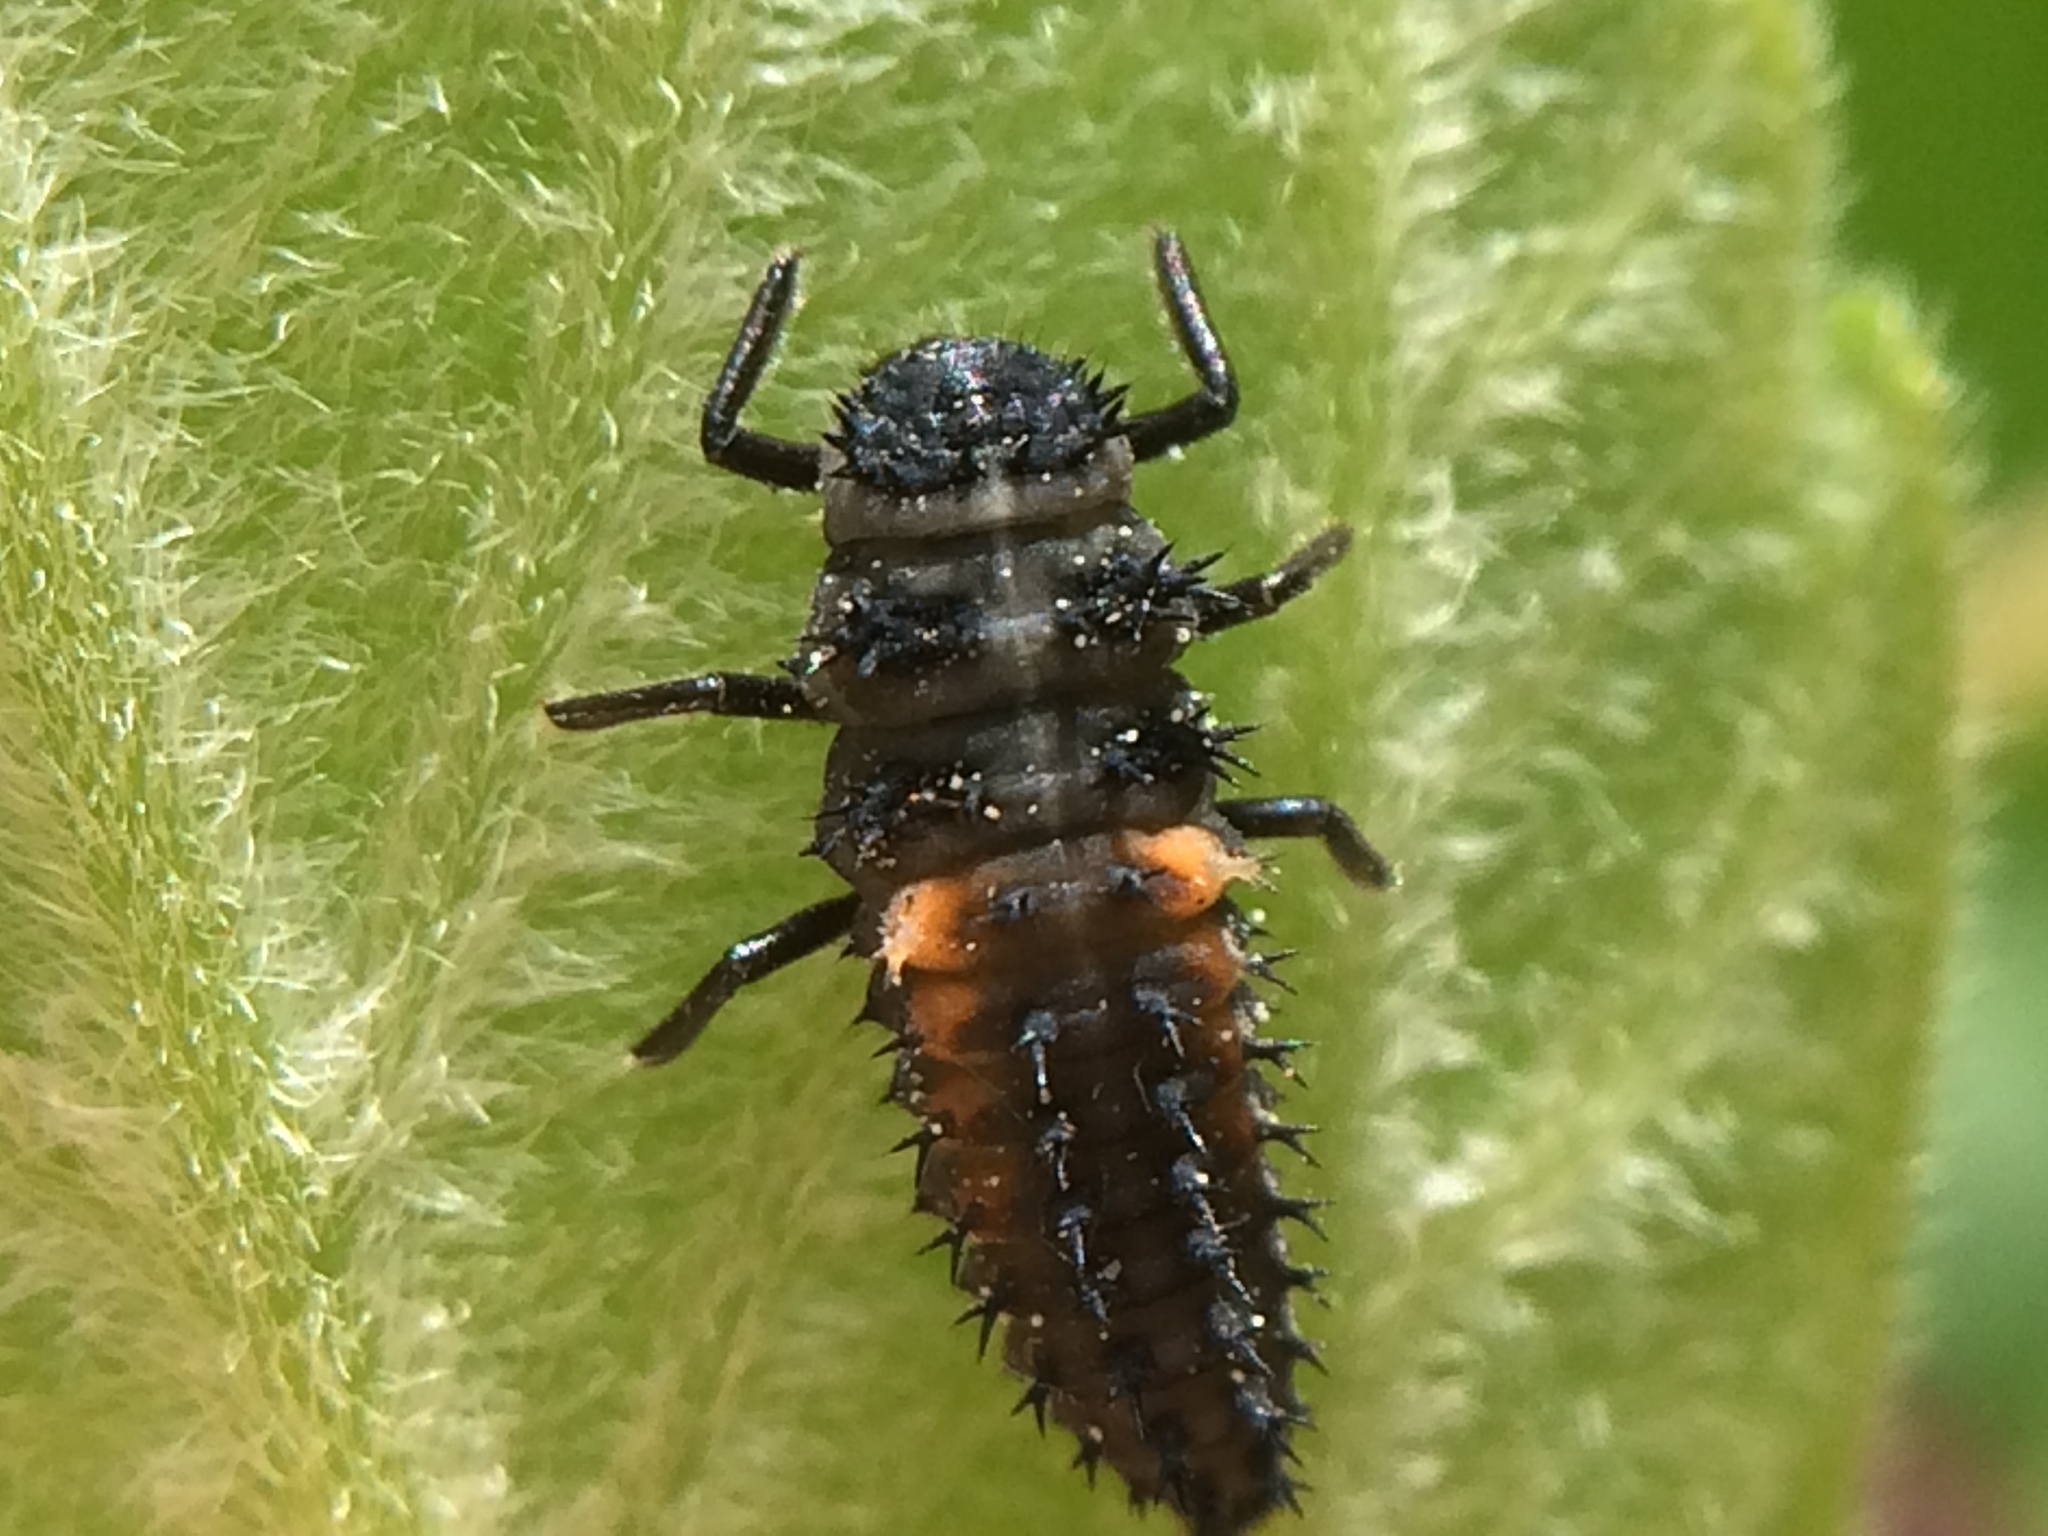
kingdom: Animalia
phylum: Arthropoda
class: Insecta
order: Coleoptera
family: Coccinellidae
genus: Harmonia
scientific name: Harmonia axyridis
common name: Harlequin ladybird
